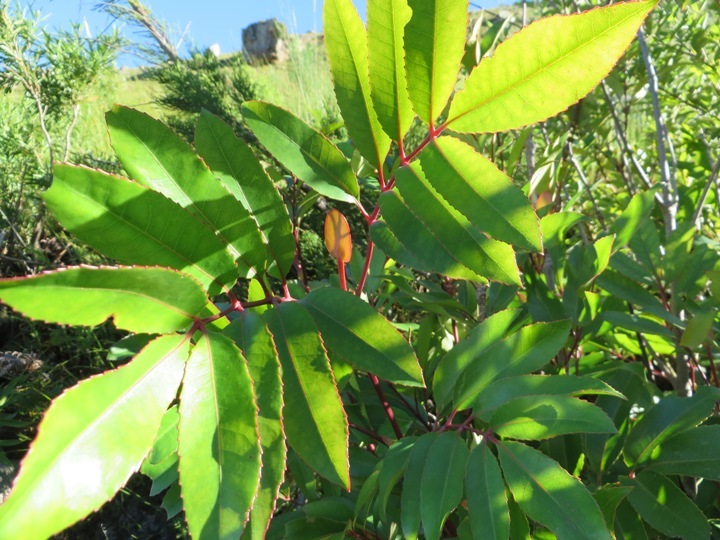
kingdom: Plantae
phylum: Tracheophyta
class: Magnoliopsida
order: Oxalidales
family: Cunoniaceae
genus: Cunonia
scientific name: Cunonia capensis
